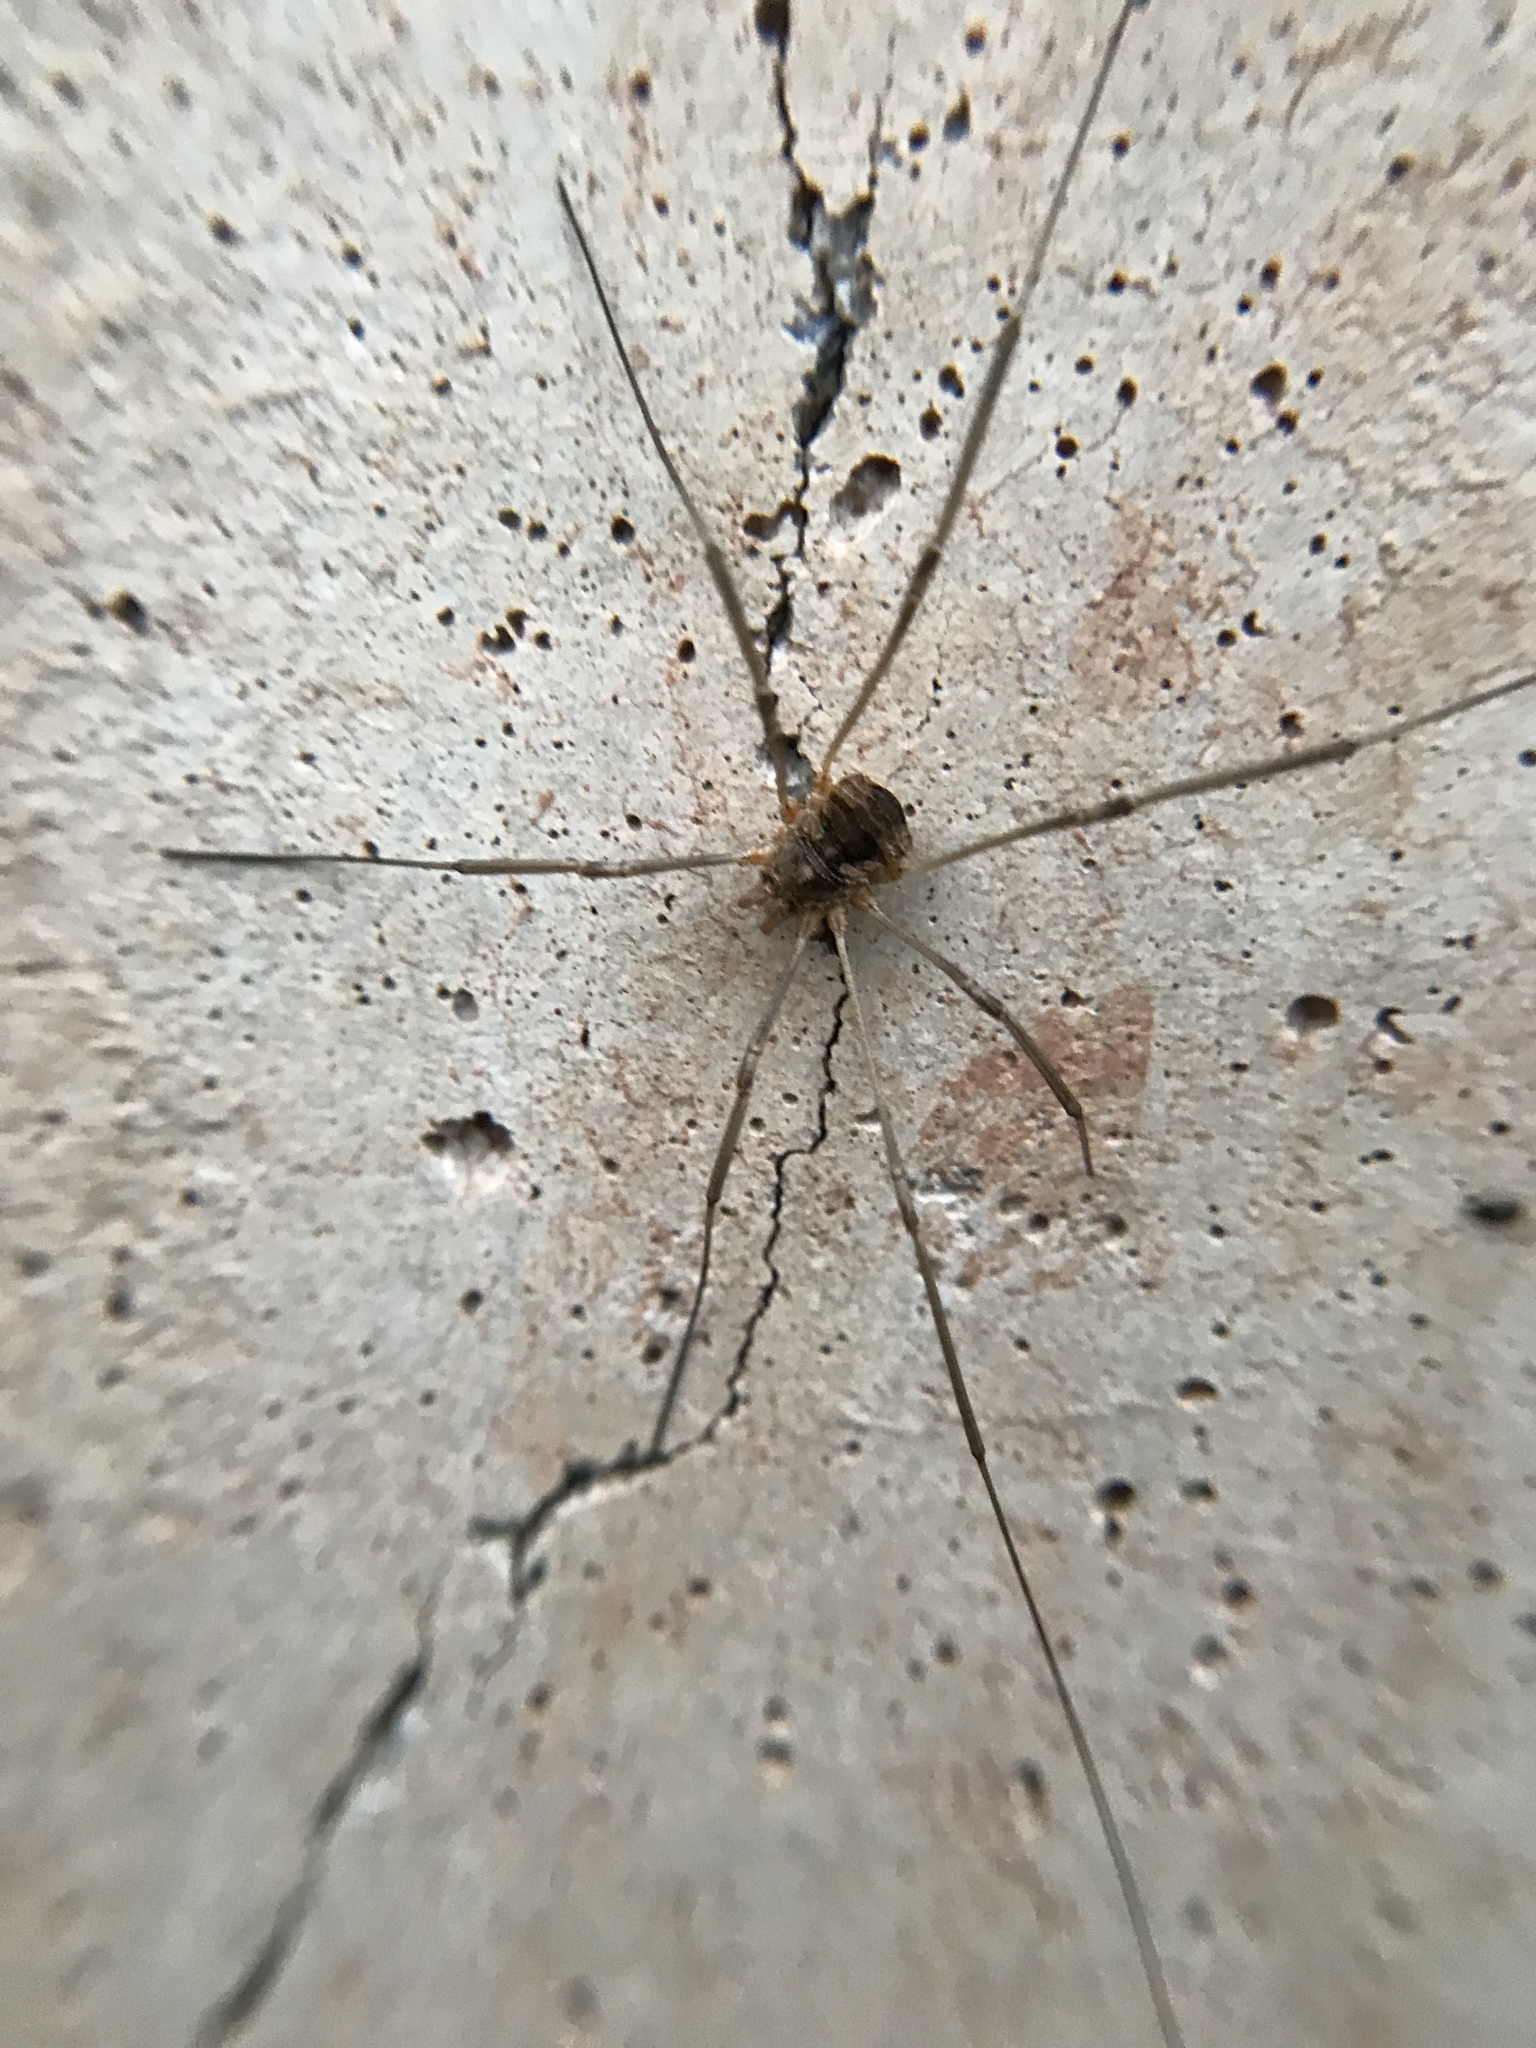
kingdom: Animalia
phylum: Arthropoda
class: Arachnida
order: Opiliones
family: Phalangiidae
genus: Phalangium
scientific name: Phalangium opilio
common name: Daddy longleg
